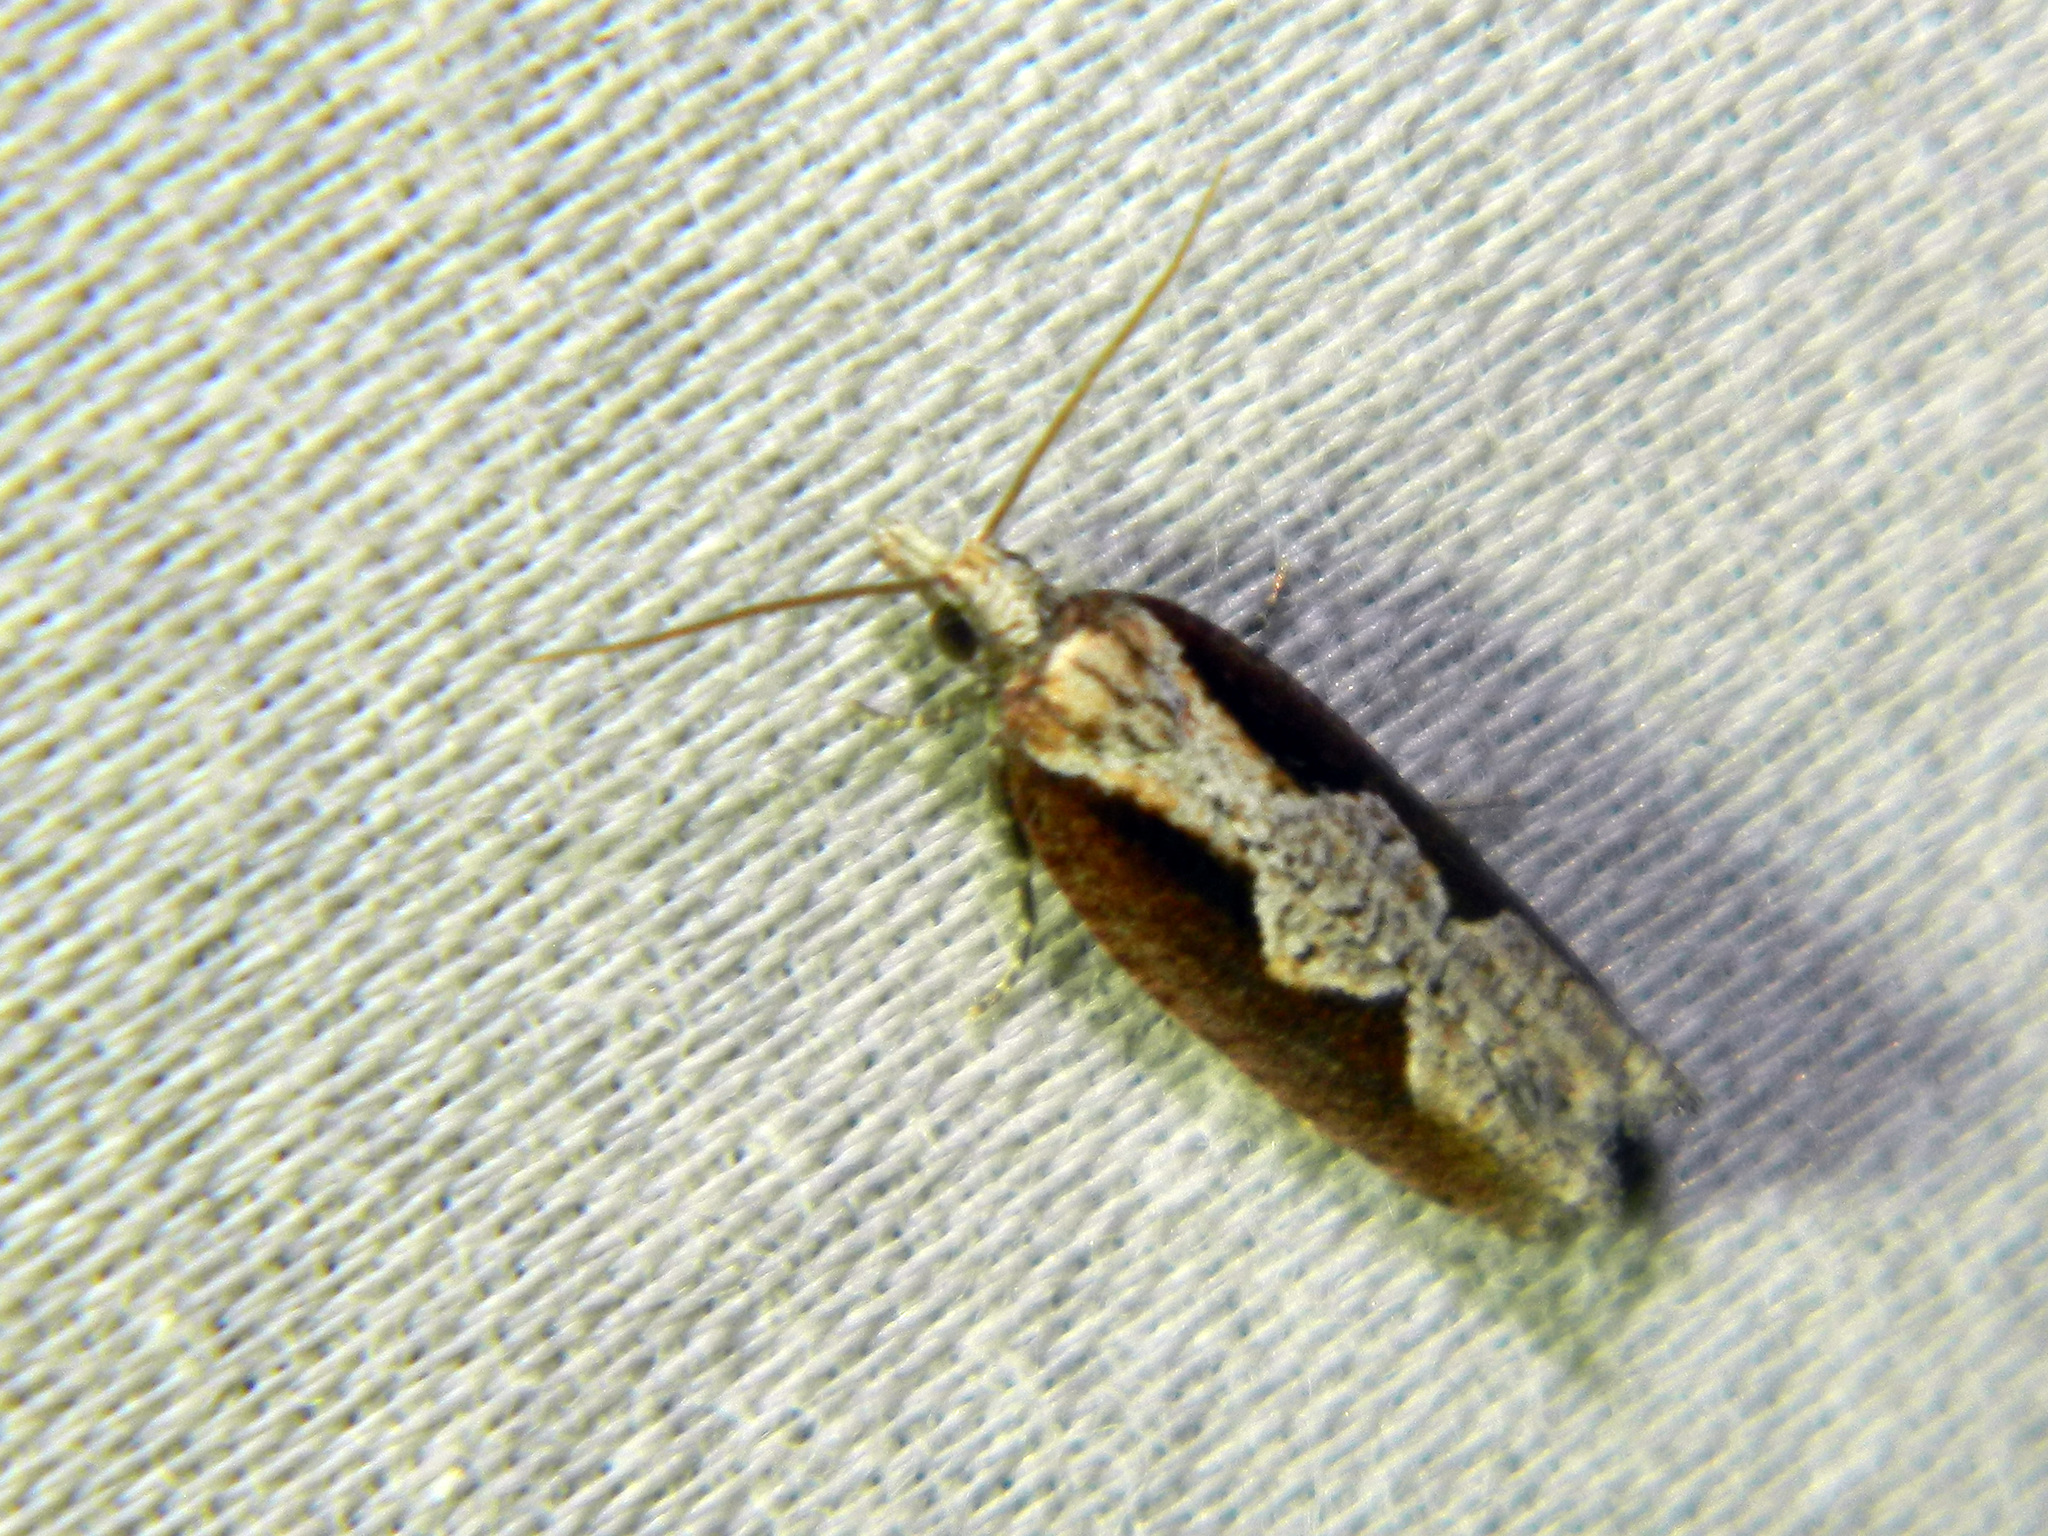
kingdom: Animalia
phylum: Arthropoda
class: Insecta
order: Lepidoptera
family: Tortricidae
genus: Epinotia
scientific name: Epinotia lindana
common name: Diamondback epinotia moth
